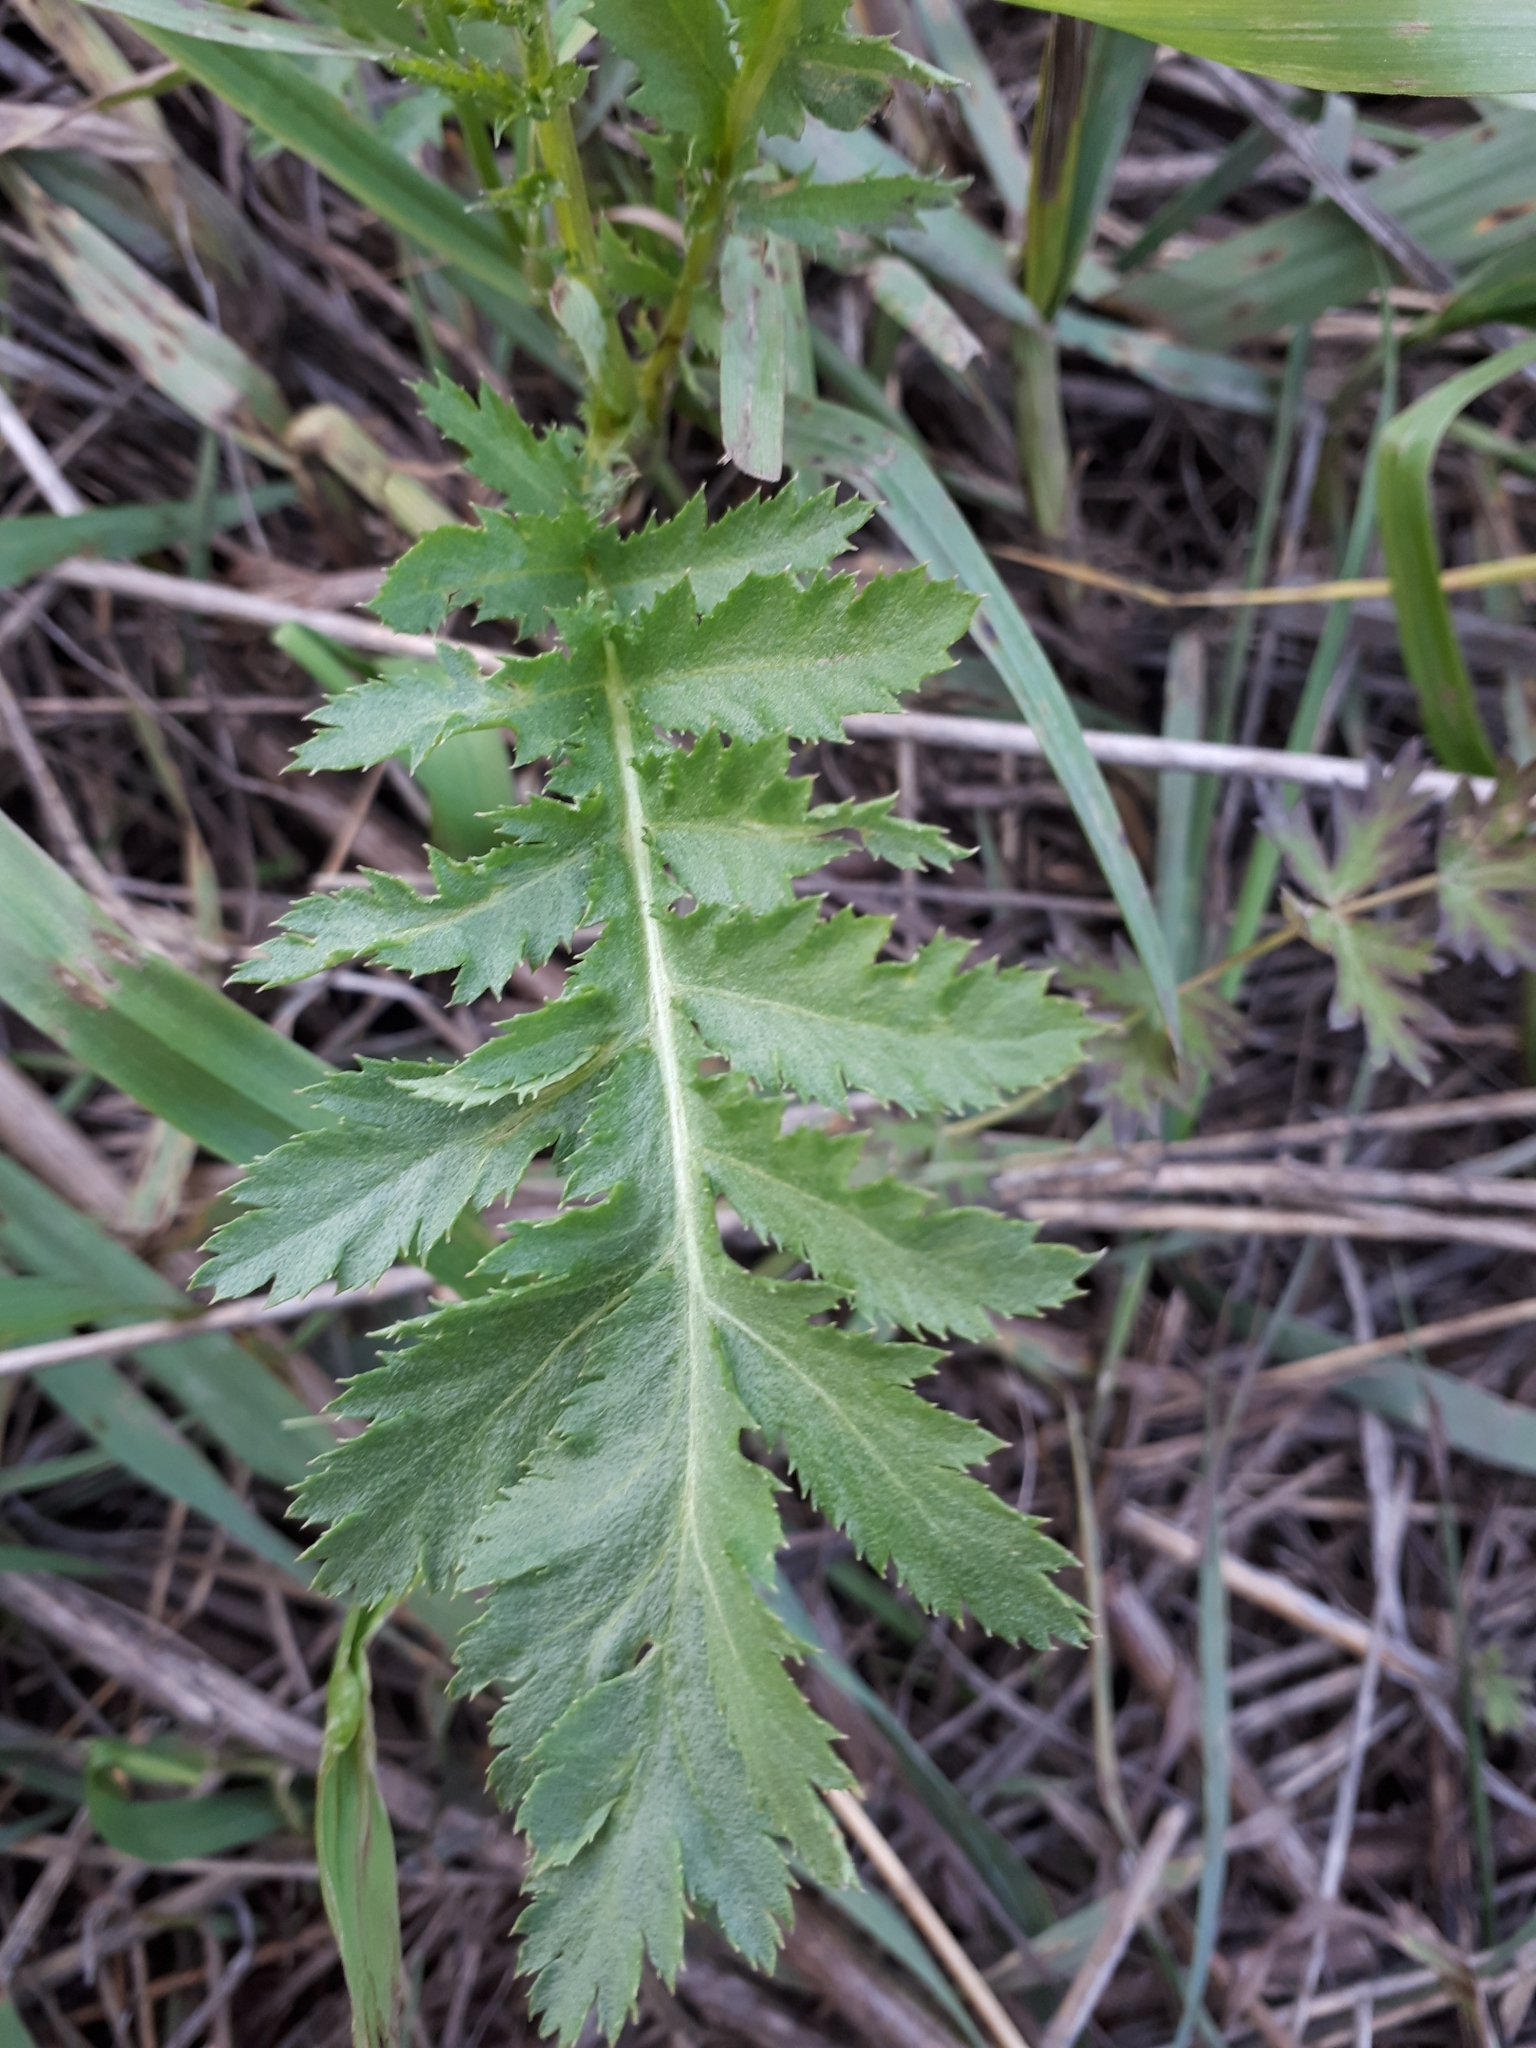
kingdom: Plantae
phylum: Tracheophyta
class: Magnoliopsida
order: Asterales
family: Asteraceae
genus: Tanacetum
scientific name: Tanacetum vulgare
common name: Common tansy
